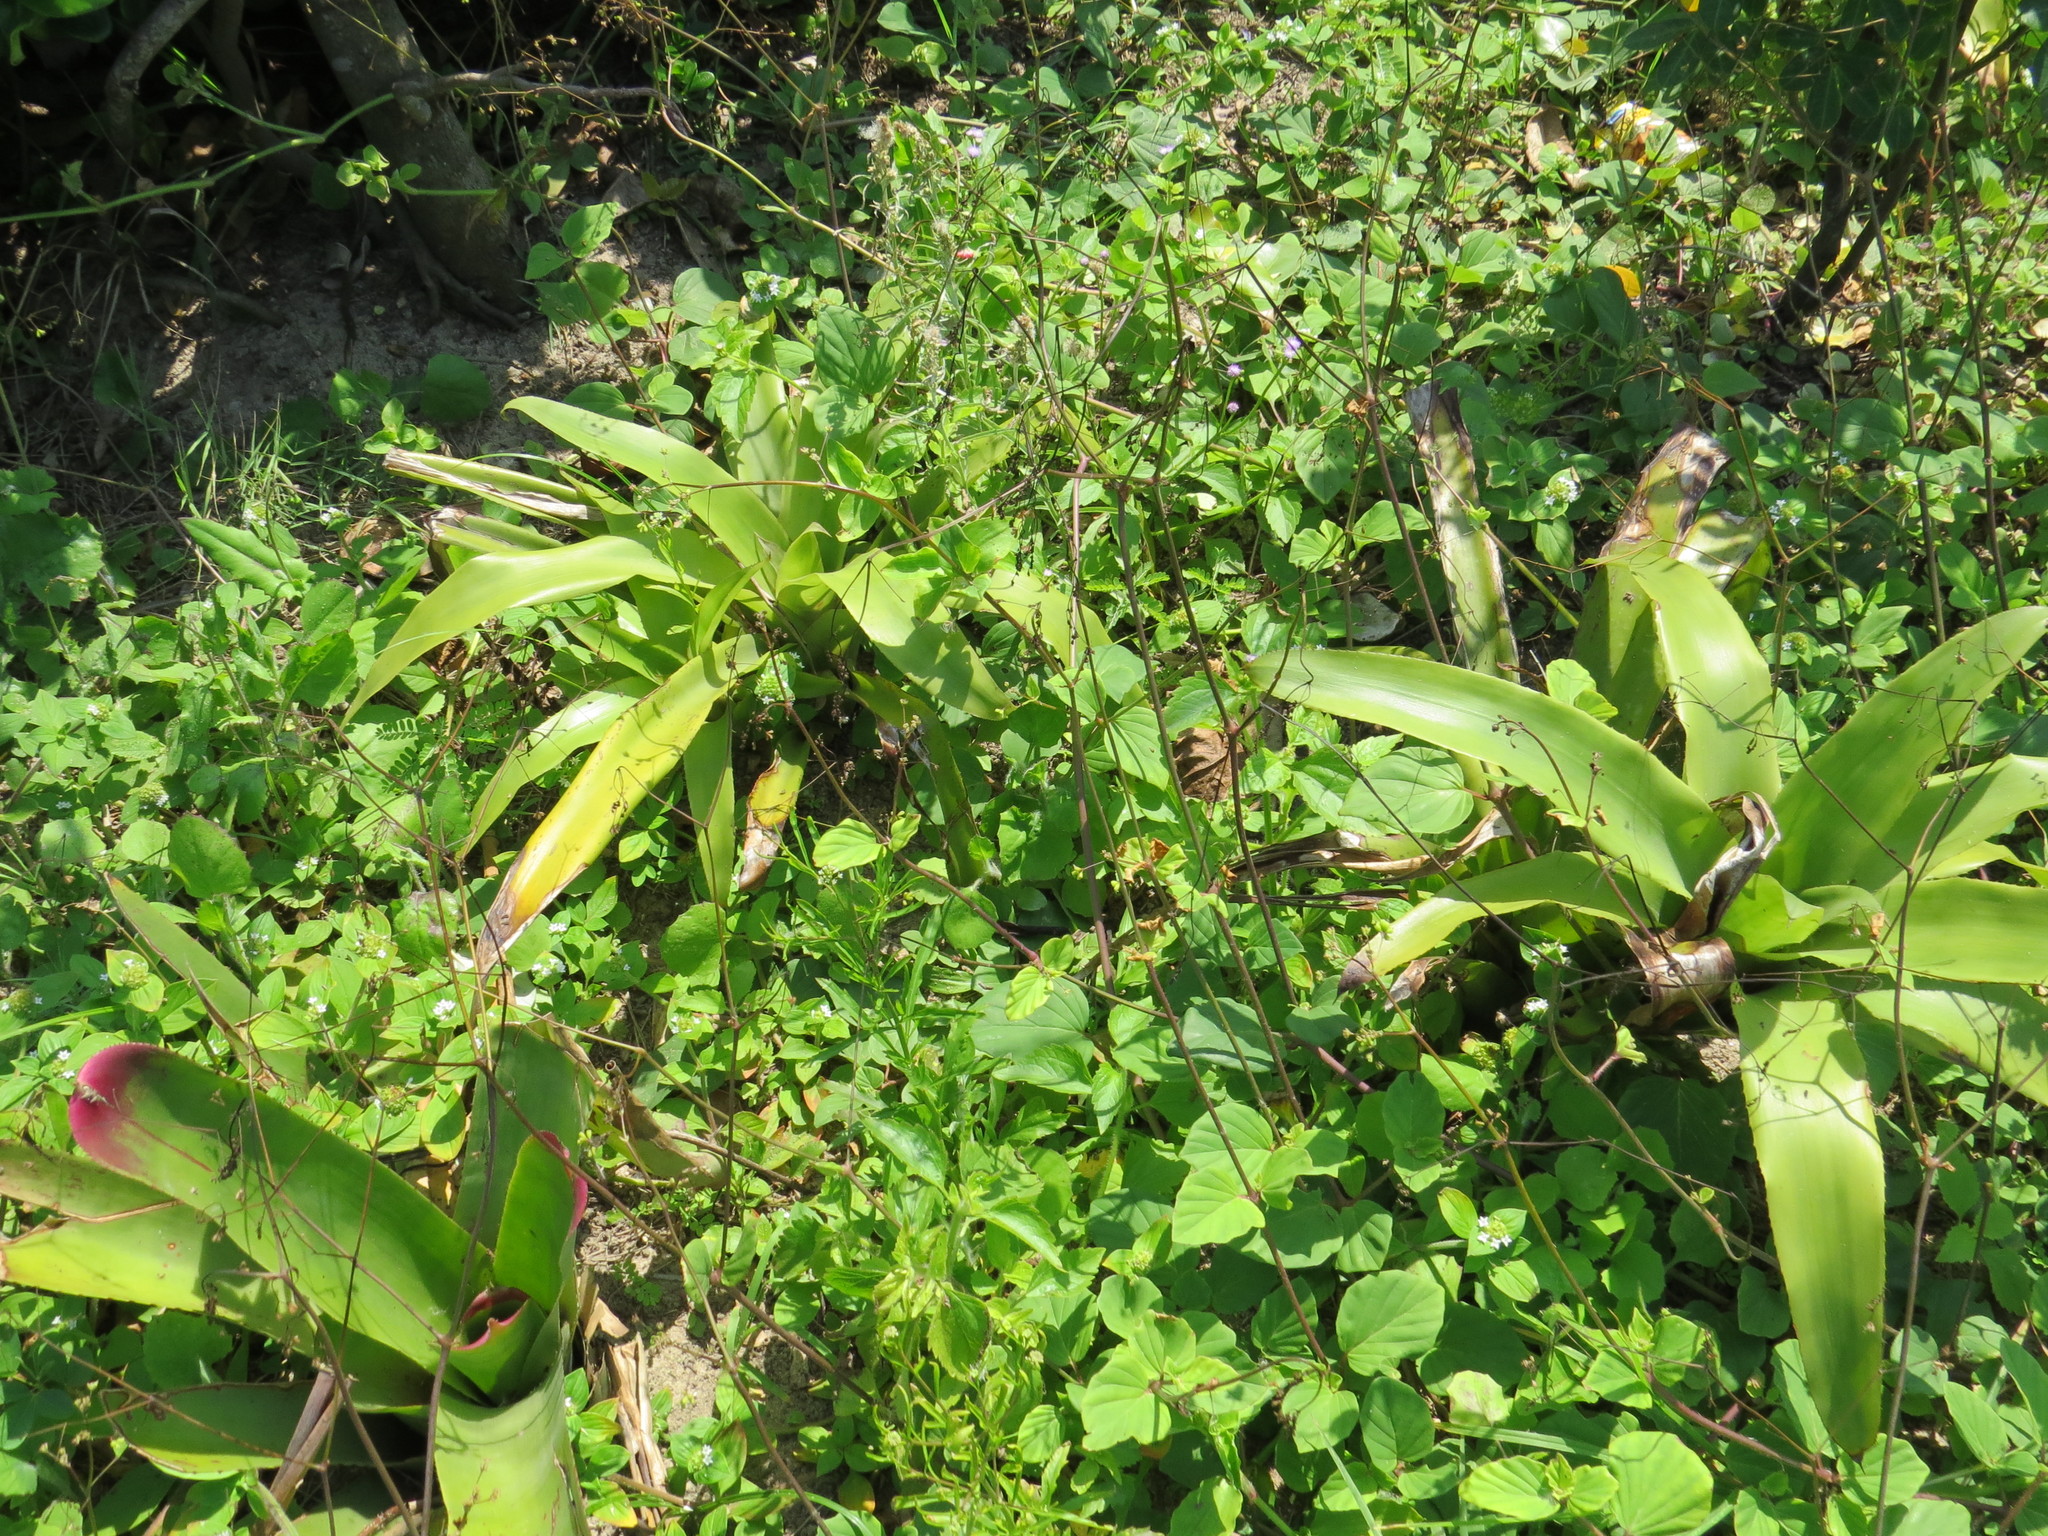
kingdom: Plantae
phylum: Tracheophyta
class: Liliopsida
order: Poales
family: Bromeliaceae
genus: Neoregelia
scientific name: Neoregelia cruenta
